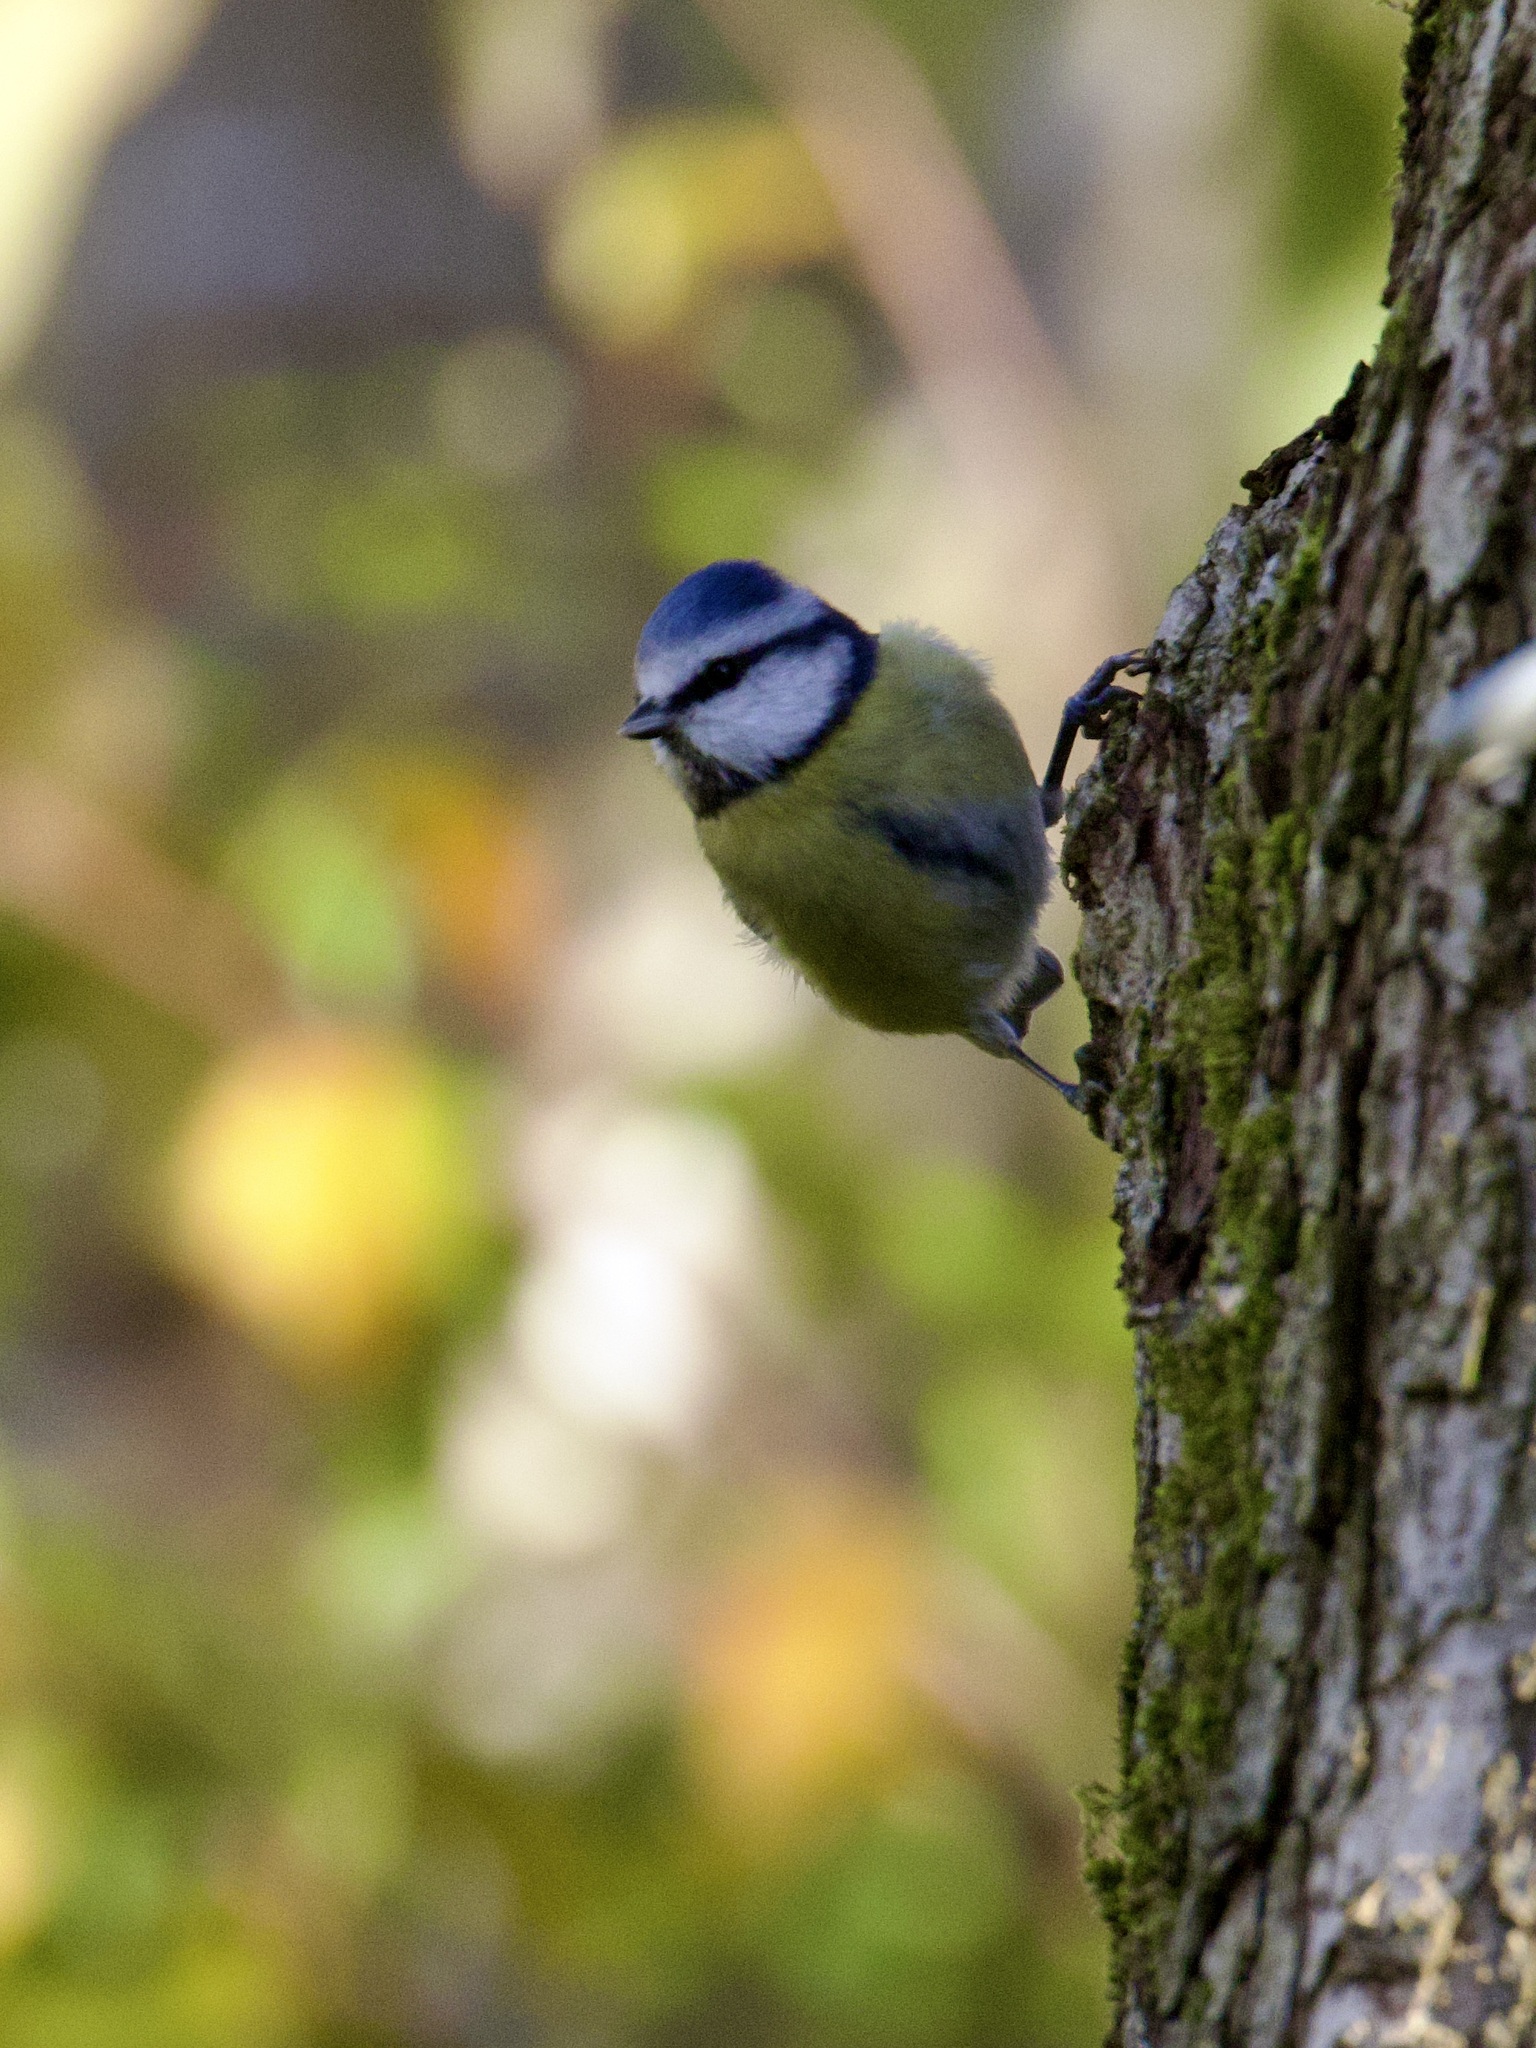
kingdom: Animalia
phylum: Chordata
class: Aves
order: Passeriformes
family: Paridae
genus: Cyanistes
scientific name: Cyanistes caeruleus
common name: Eurasian blue tit
